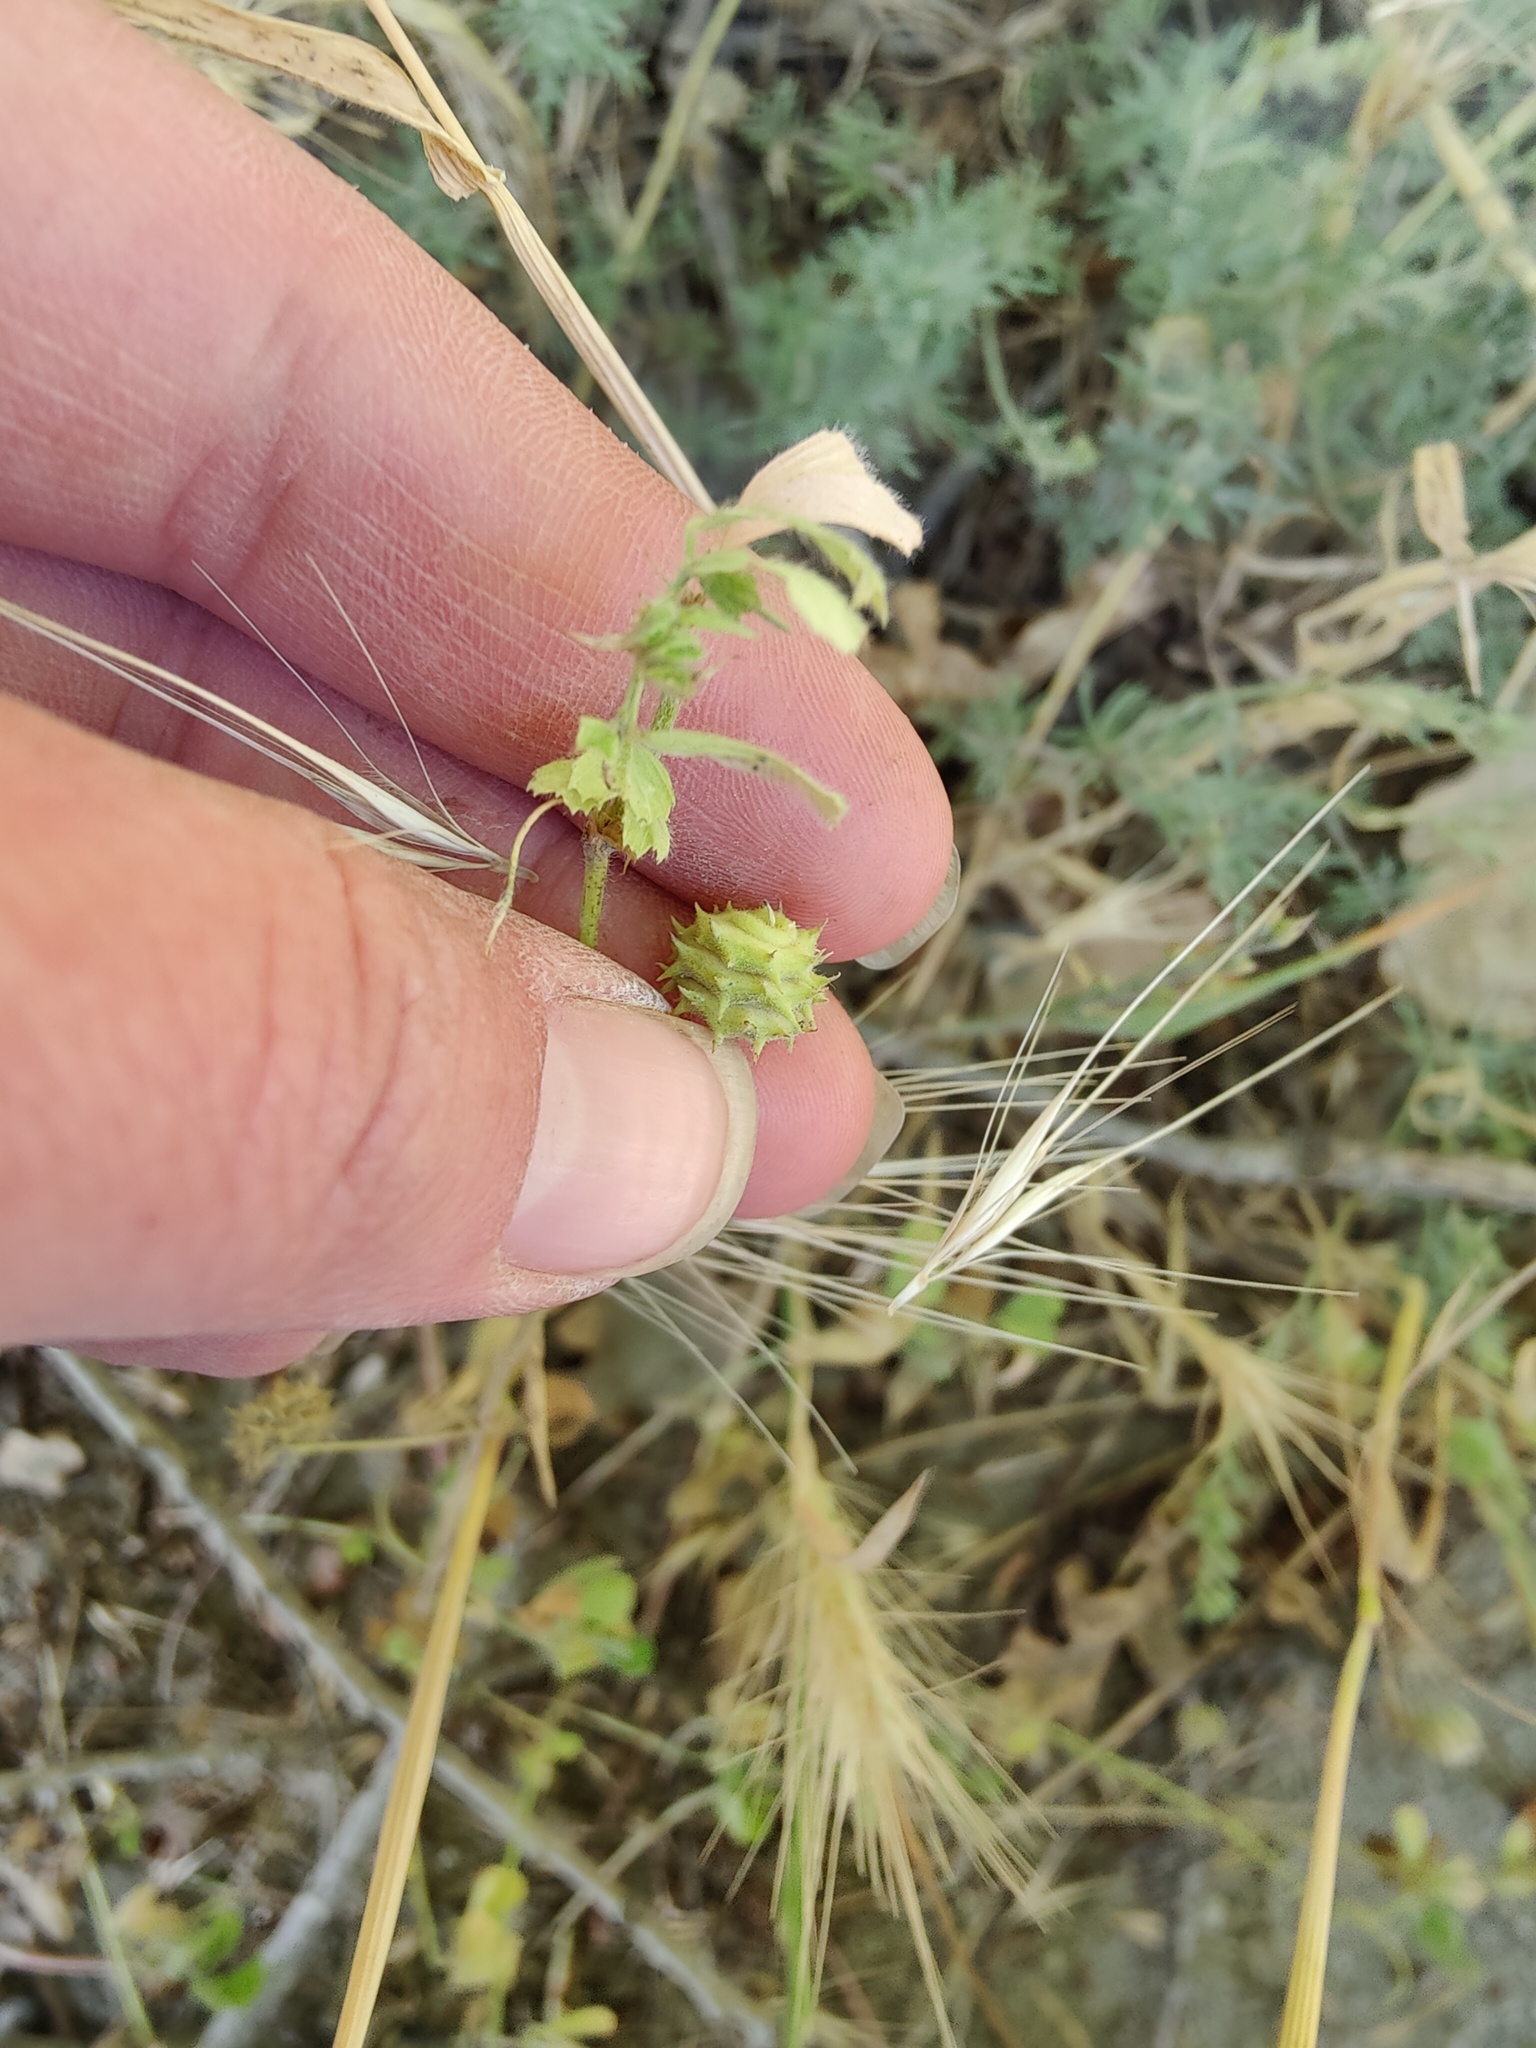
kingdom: Plantae
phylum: Tracheophyta
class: Magnoliopsida
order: Fabales
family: Fabaceae
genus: Medicago
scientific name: Medicago rigidula
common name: Tifton medic
